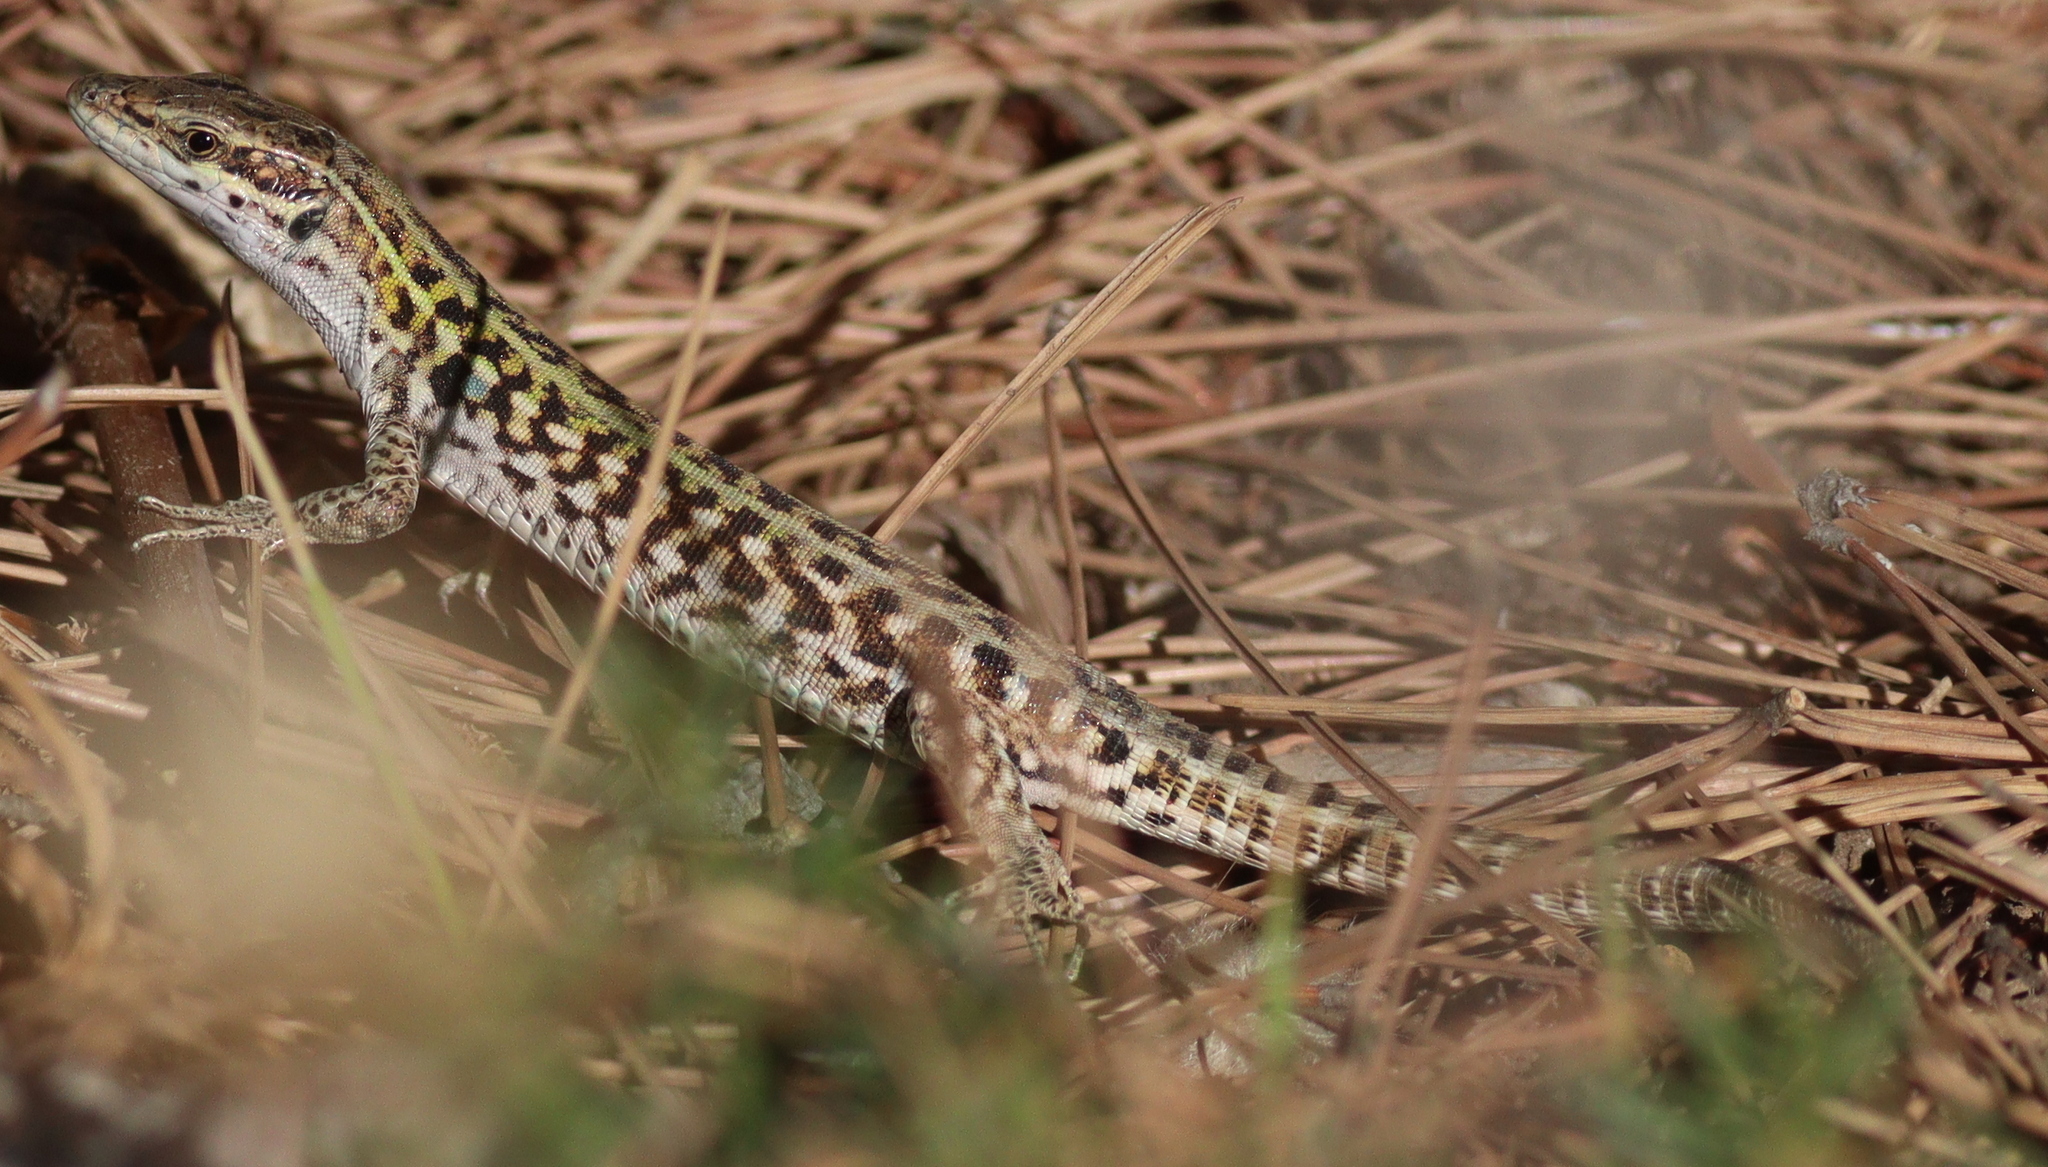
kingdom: Animalia
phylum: Chordata
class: Squamata
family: Lacertidae
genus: Podarcis
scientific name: Podarcis siculus
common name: Italian wall lizard
